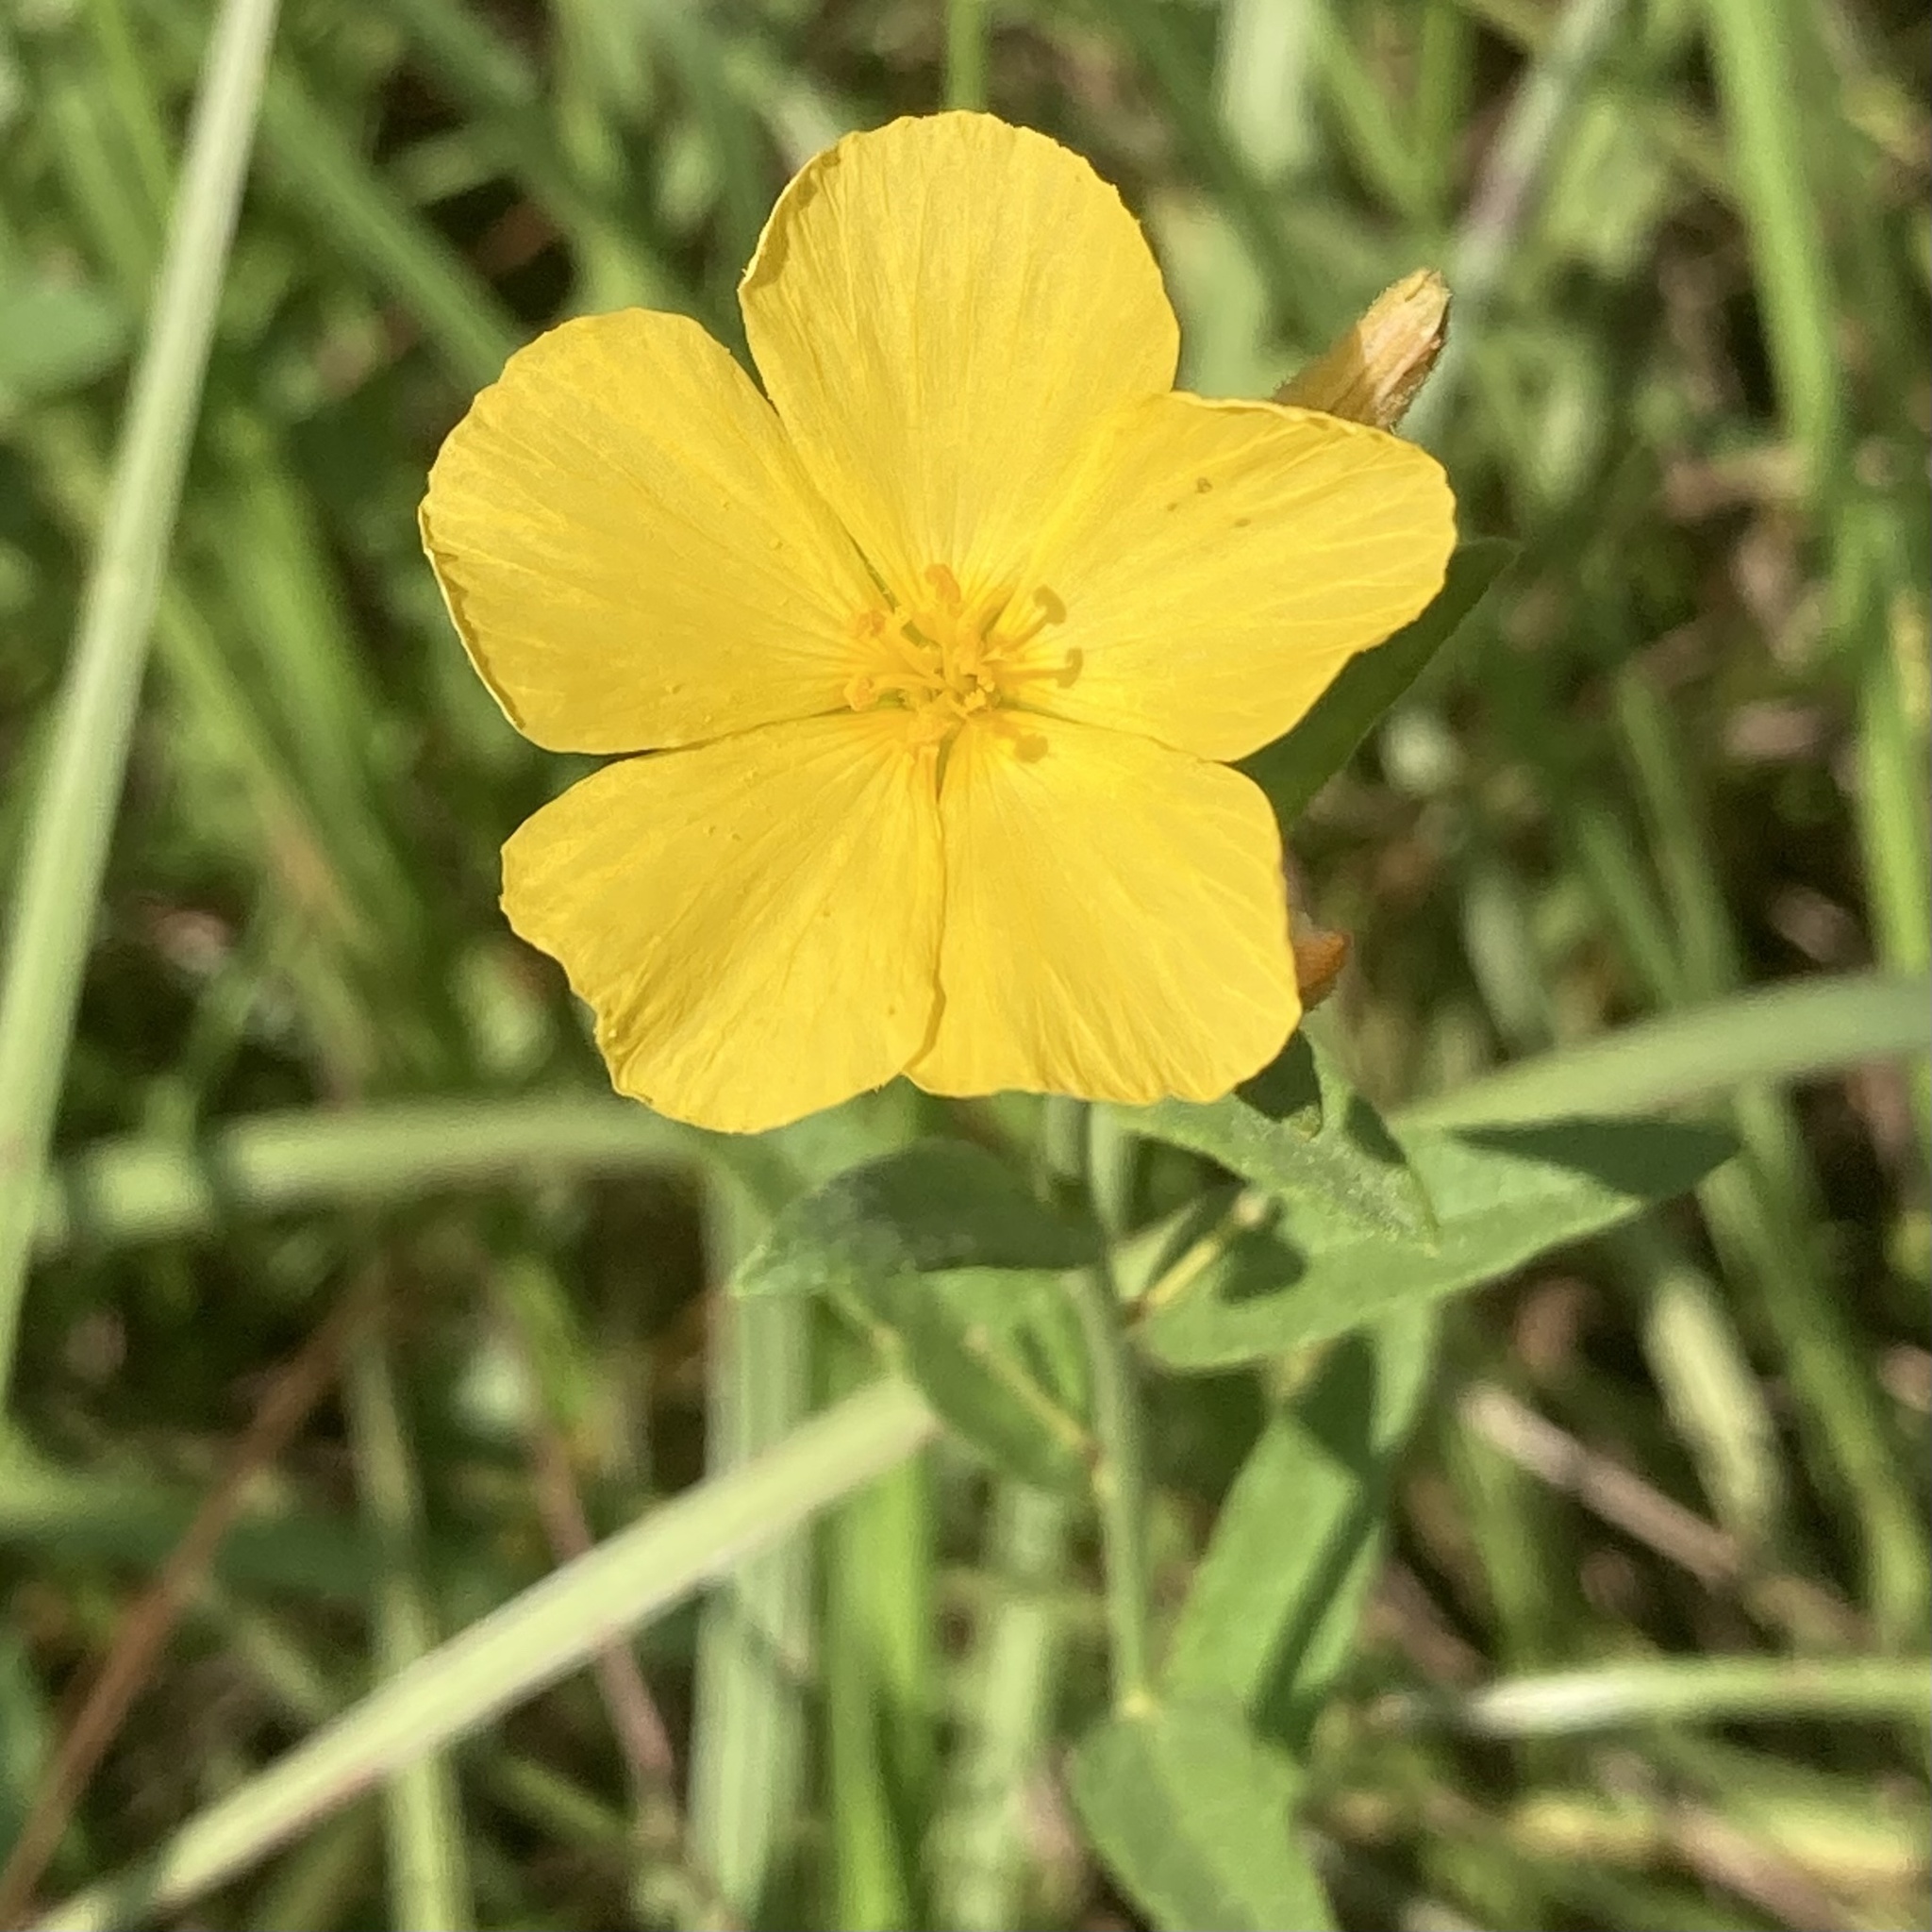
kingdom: Plantae
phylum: Tracheophyta
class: Magnoliopsida
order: Malpighiales
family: Turneraceae
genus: Piriqueta
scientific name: Piriqueta cistoides
